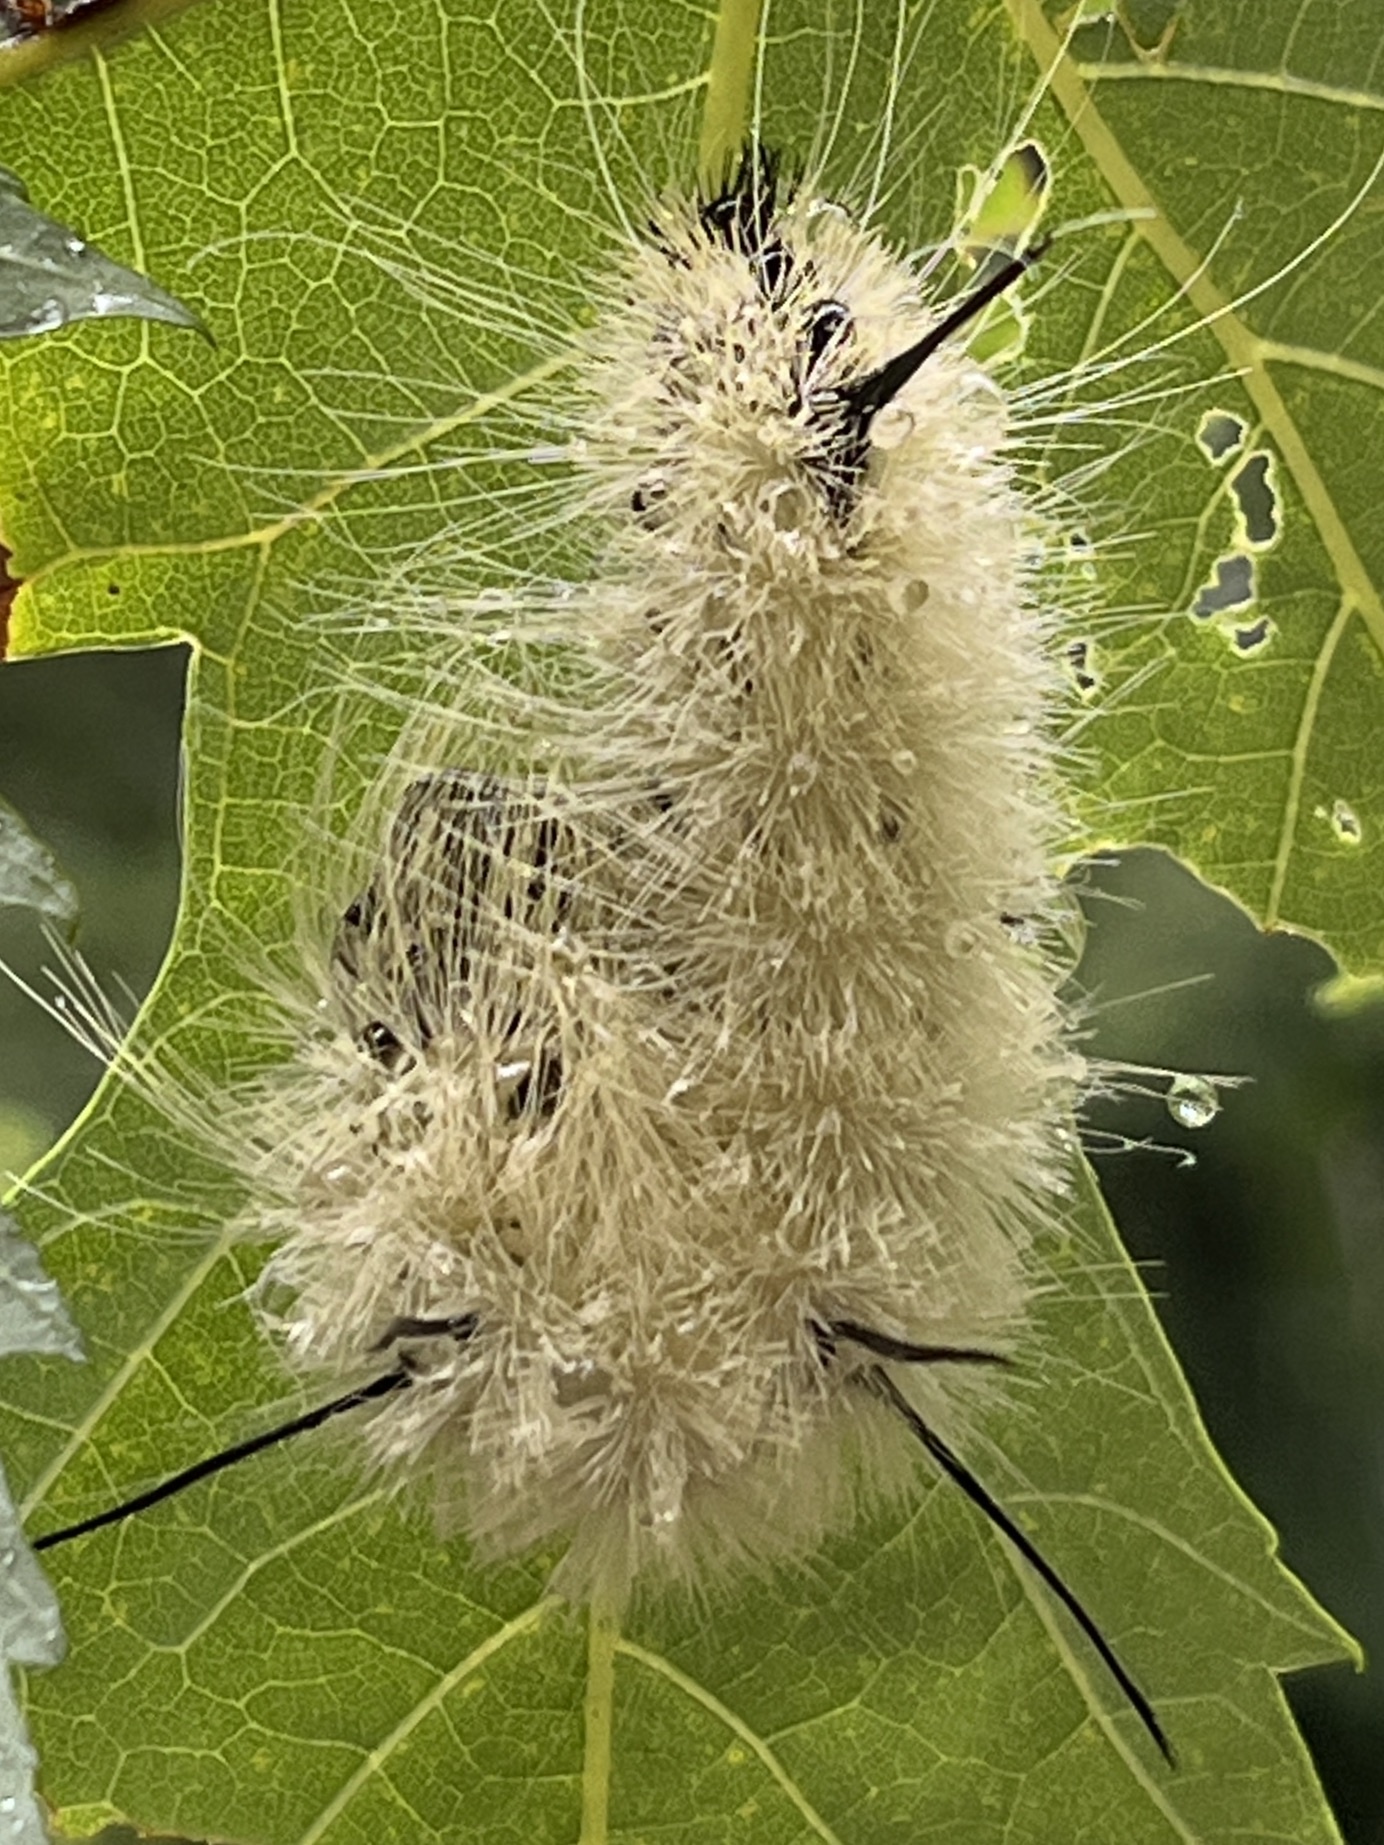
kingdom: Animalia
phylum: Arthropoda
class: Insecta
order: Lepidoptera
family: Noctuidae
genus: Acronicta
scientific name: Acronicta americana
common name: American dagger
